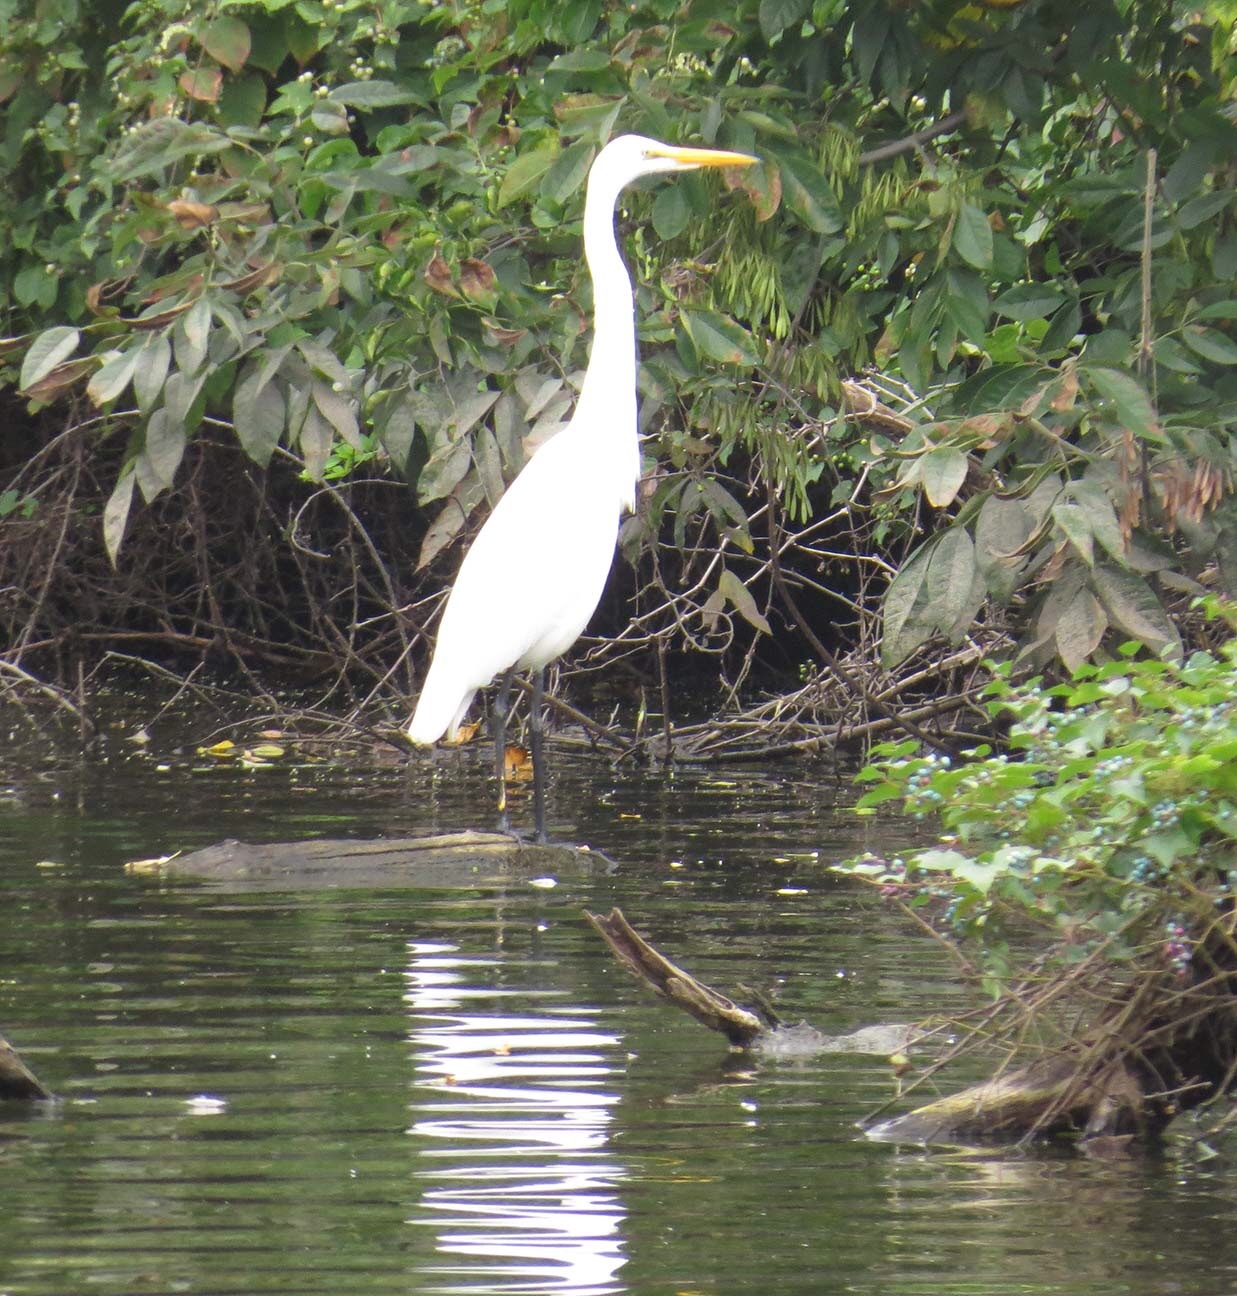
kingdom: Animalia
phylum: Chordata
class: Aves
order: Pelecaniformes
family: Ardeidae
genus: Ardea
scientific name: Ardea alba
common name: Great egret
